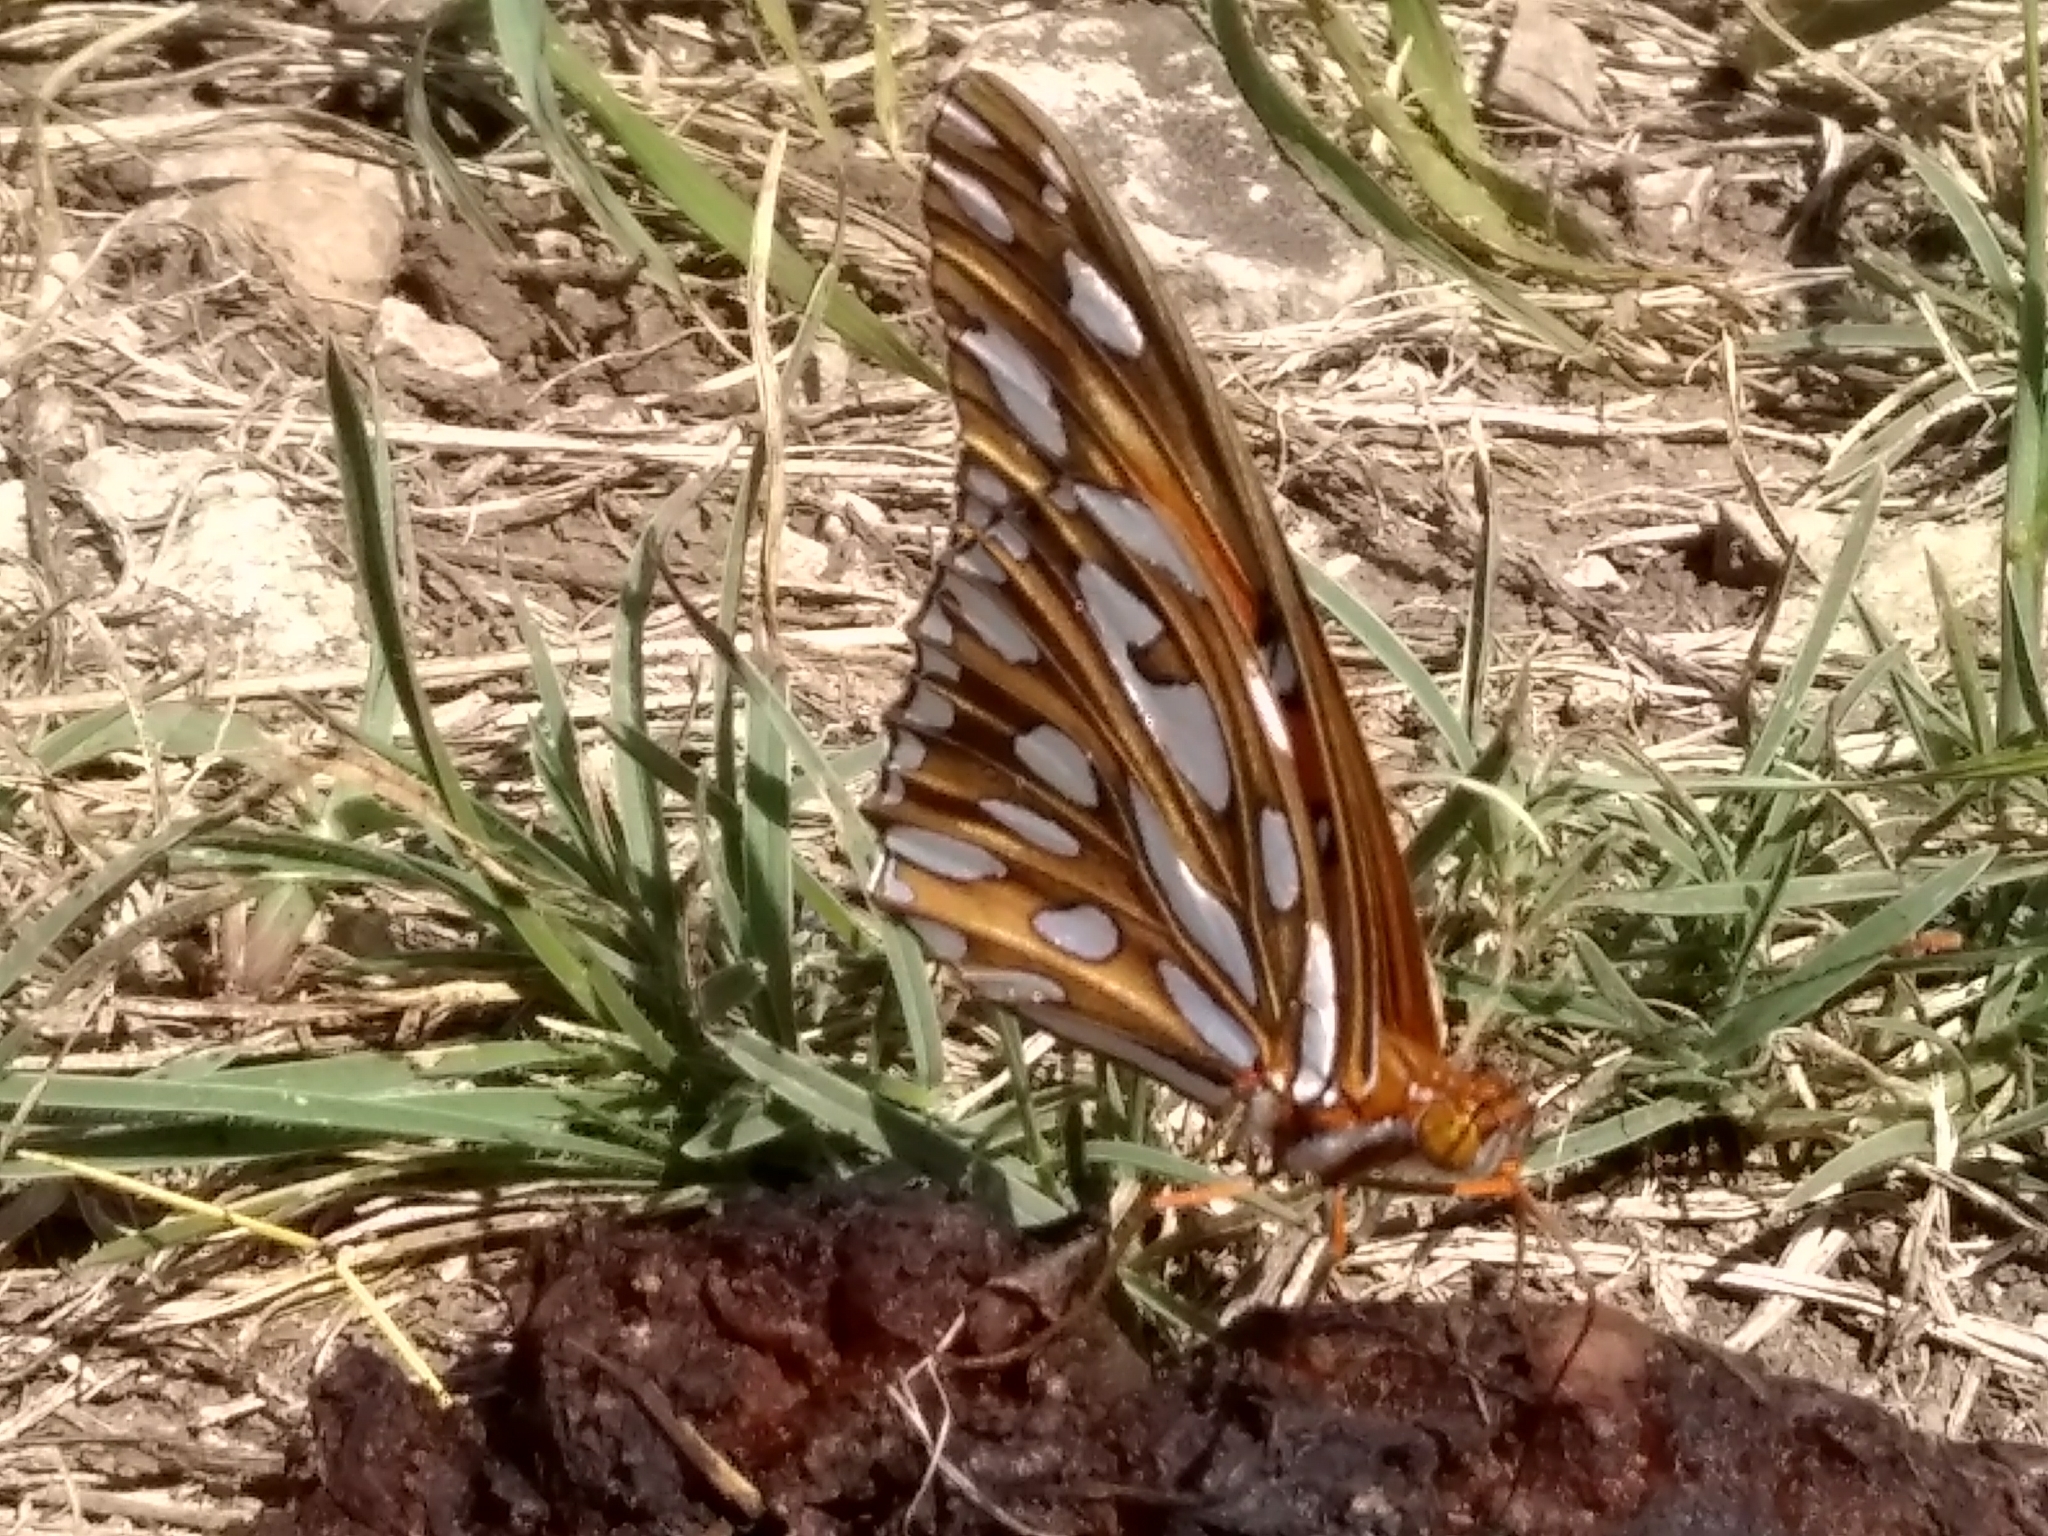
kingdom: Animalia
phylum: Arthropoda
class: Insecta
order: Lepidoptera
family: Nymphalidae
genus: Dione
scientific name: Dione vanillae
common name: Gulf fritillary
